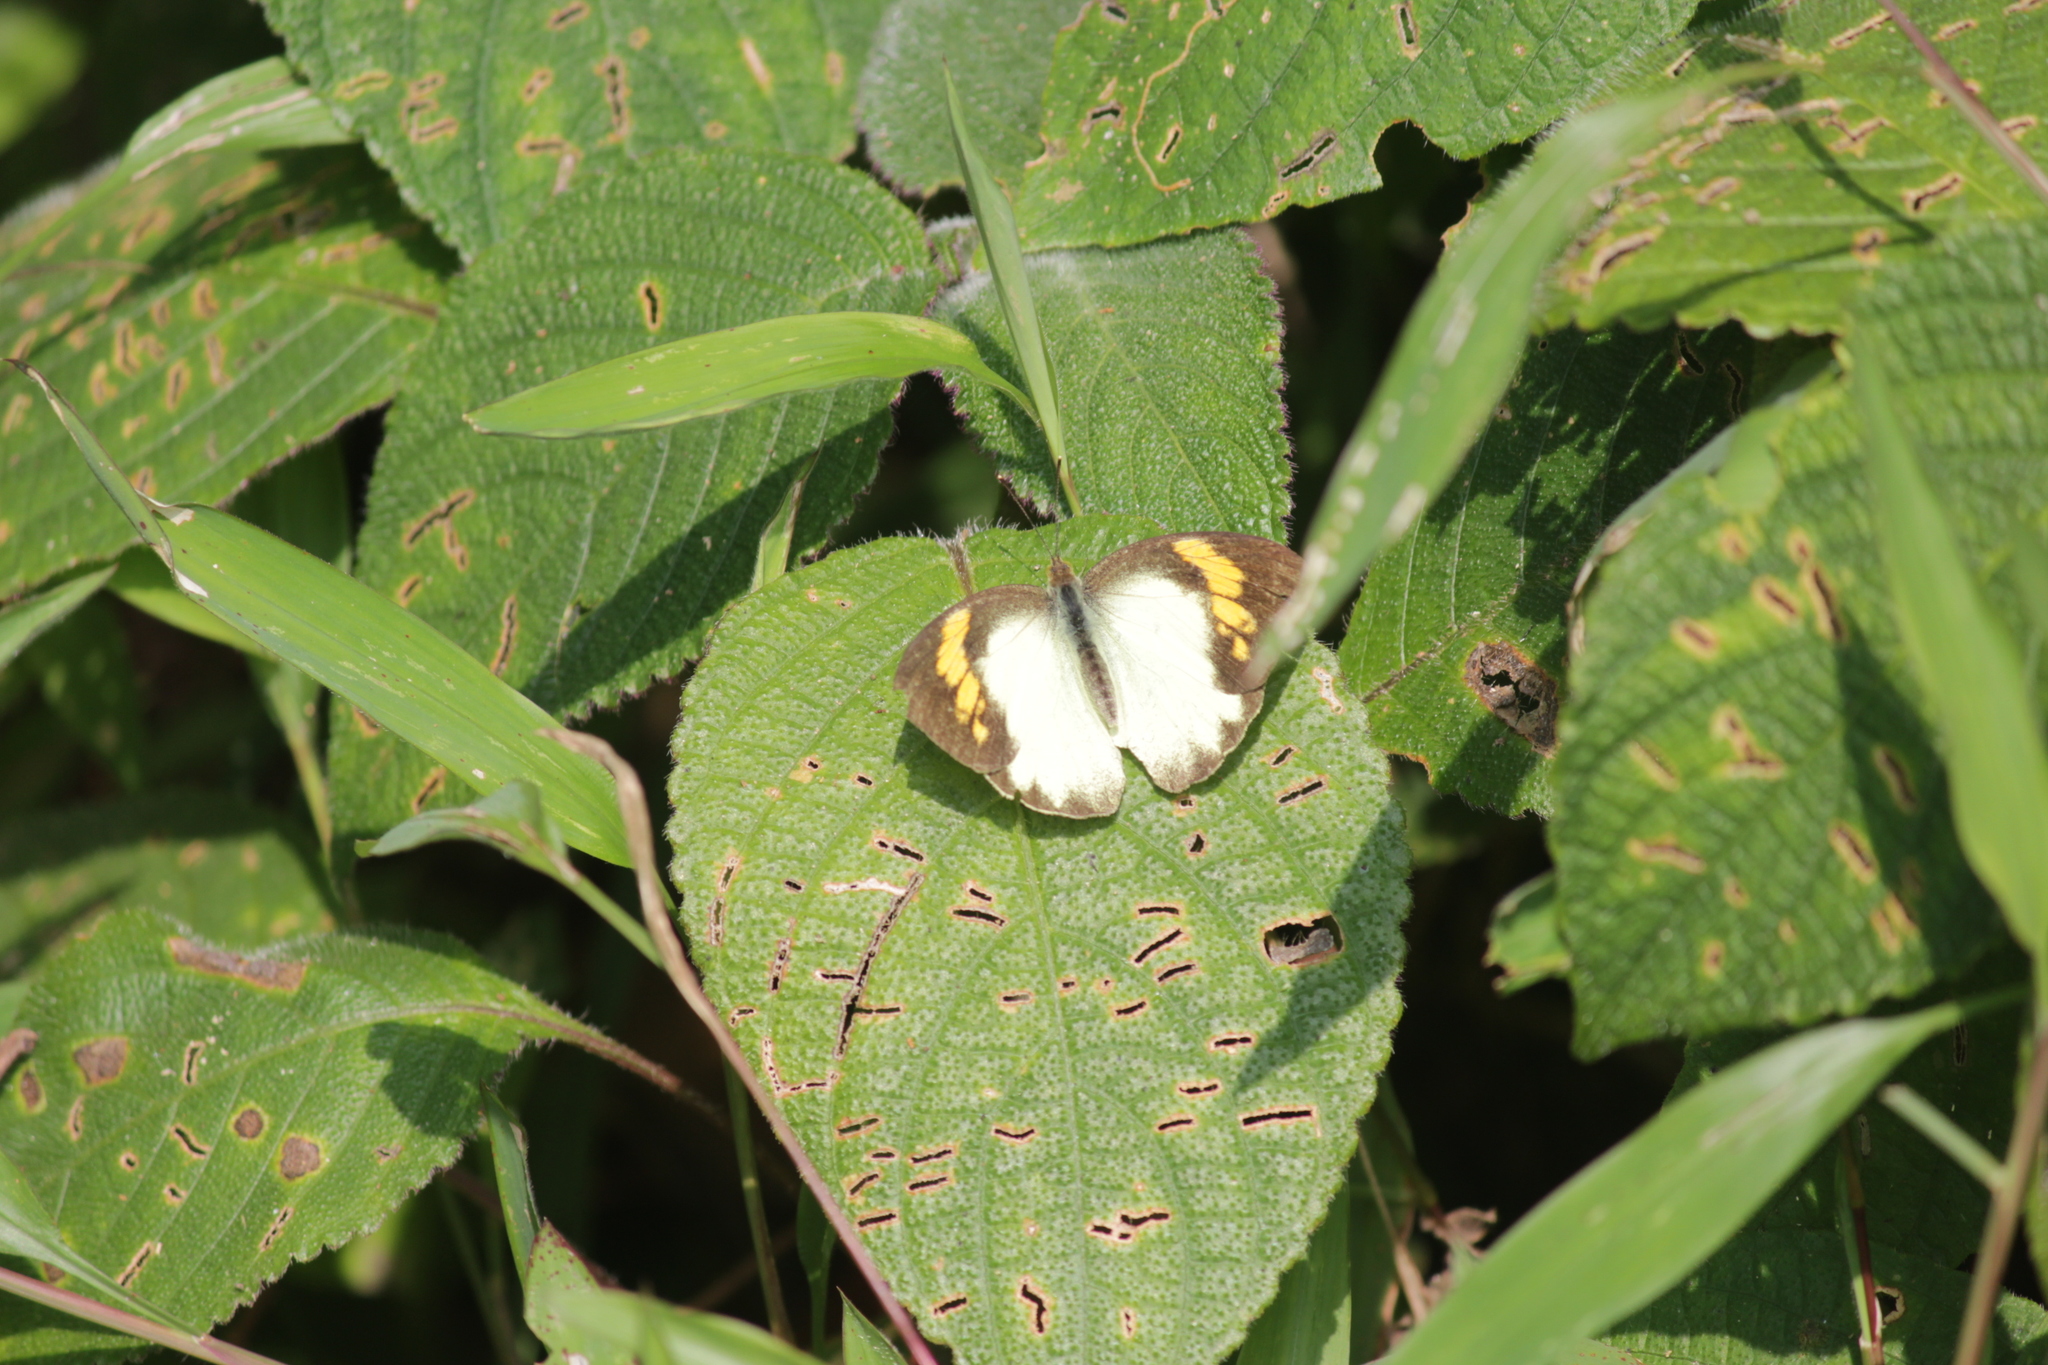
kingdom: Animalia
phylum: Arthropoda
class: Insecta
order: Lepidoptera
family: Pieridae
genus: Ixias
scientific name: Ixias pyrene
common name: Yellow orange tip
